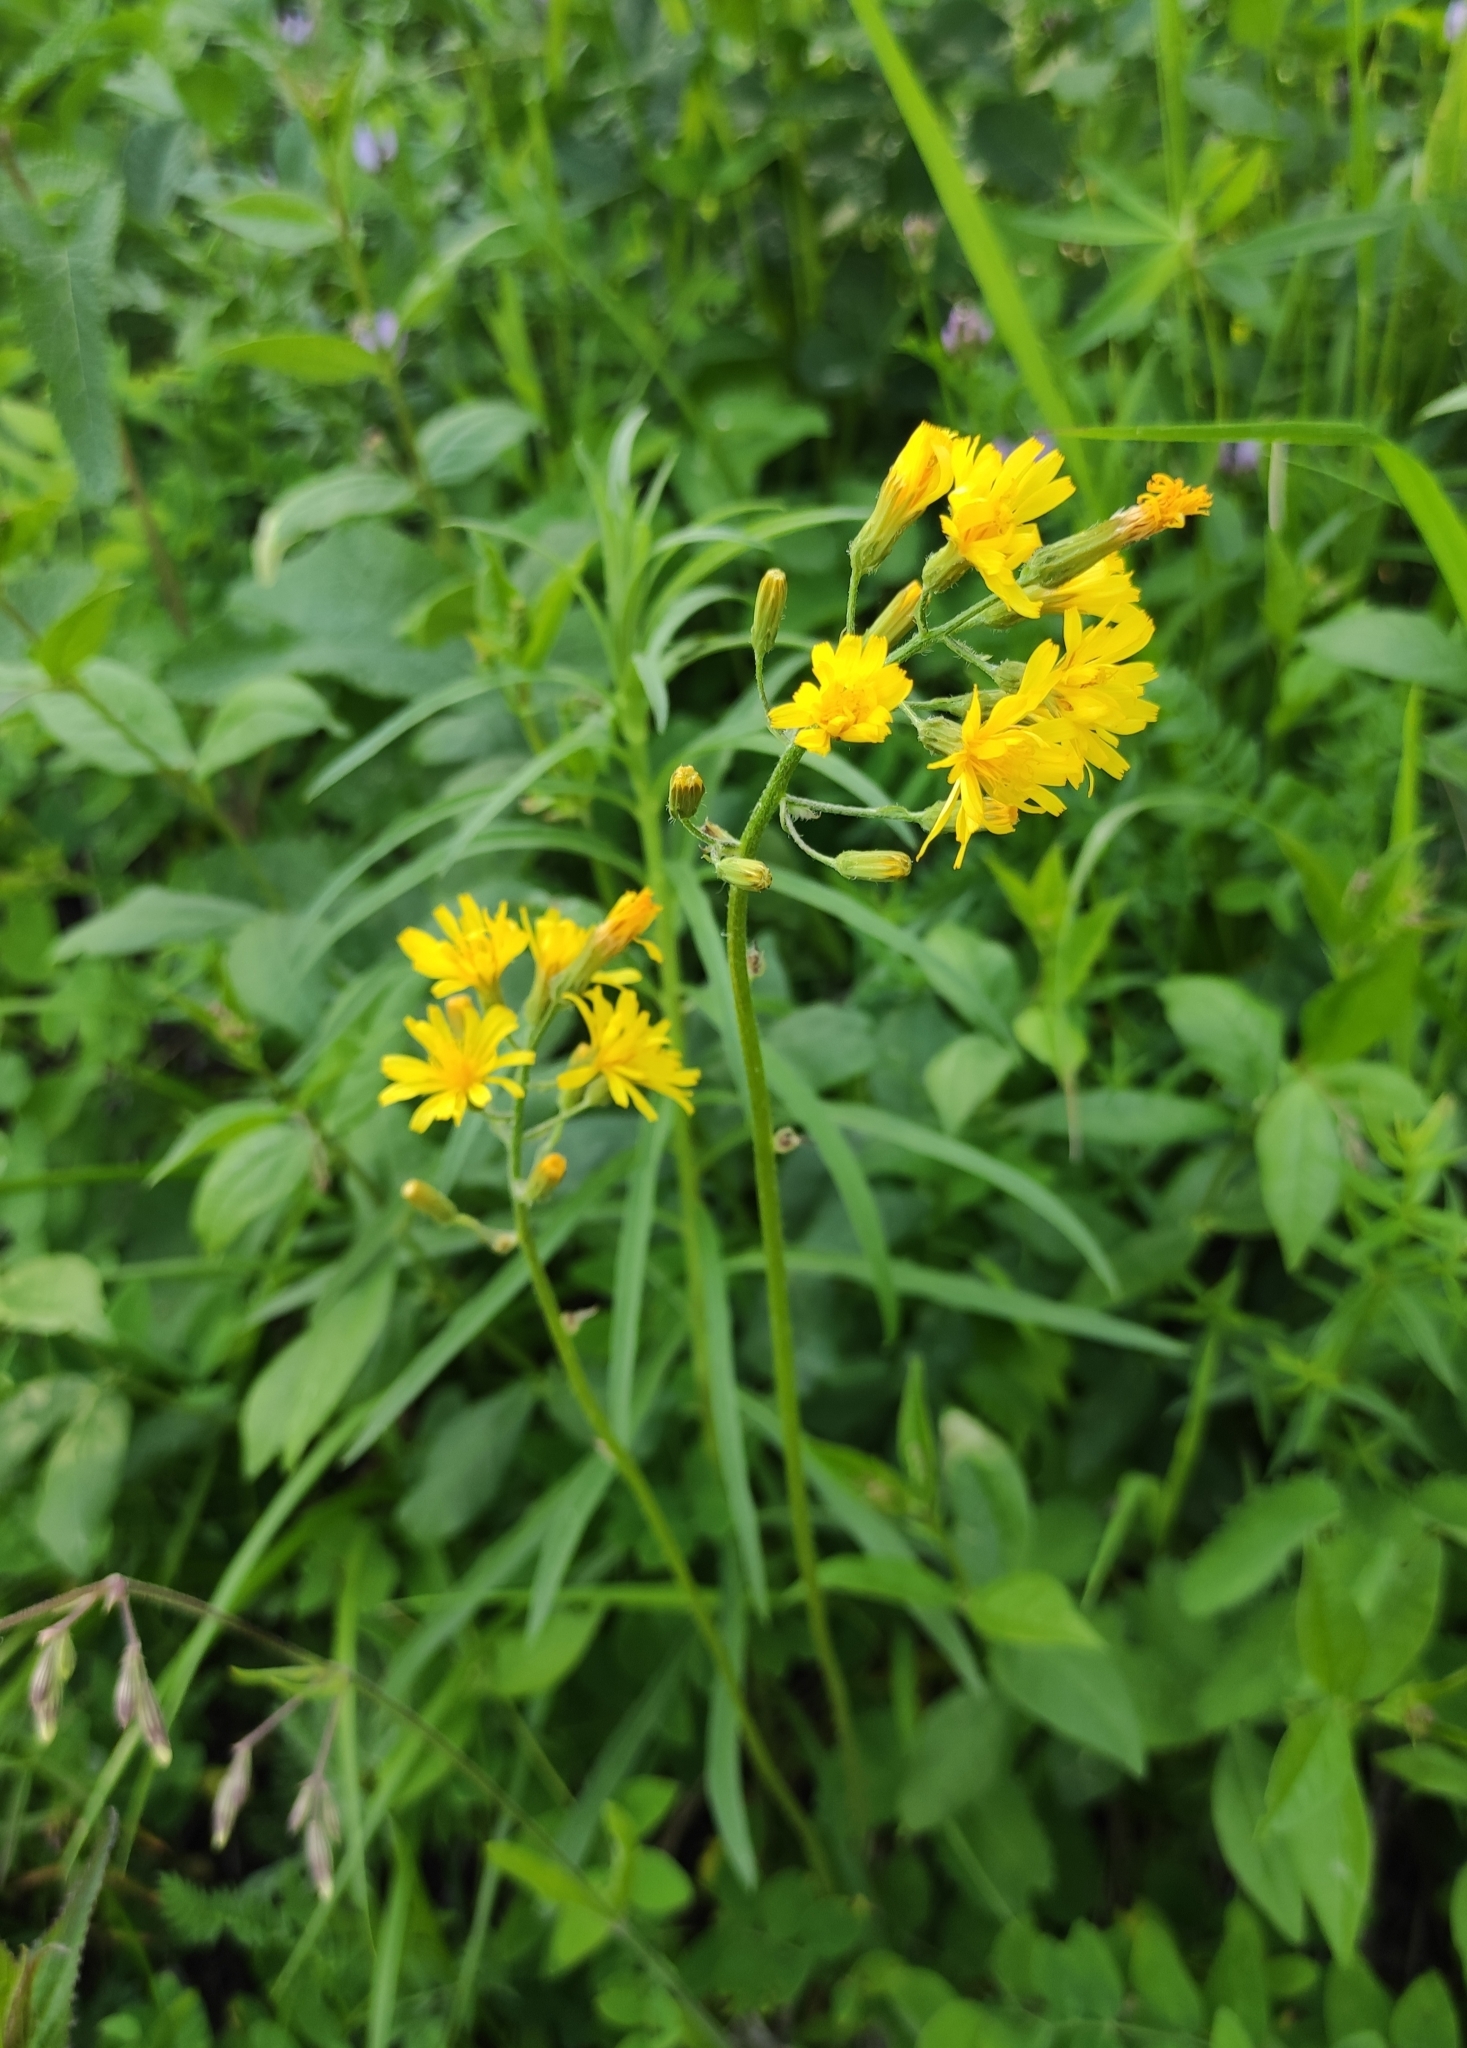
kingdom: Plantae
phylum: Tracheophyta
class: Magnoliopsida
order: Asterales
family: Asteraceae
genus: Crepis
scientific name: Crepis praemorsa
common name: Leafless hawk's-beard
